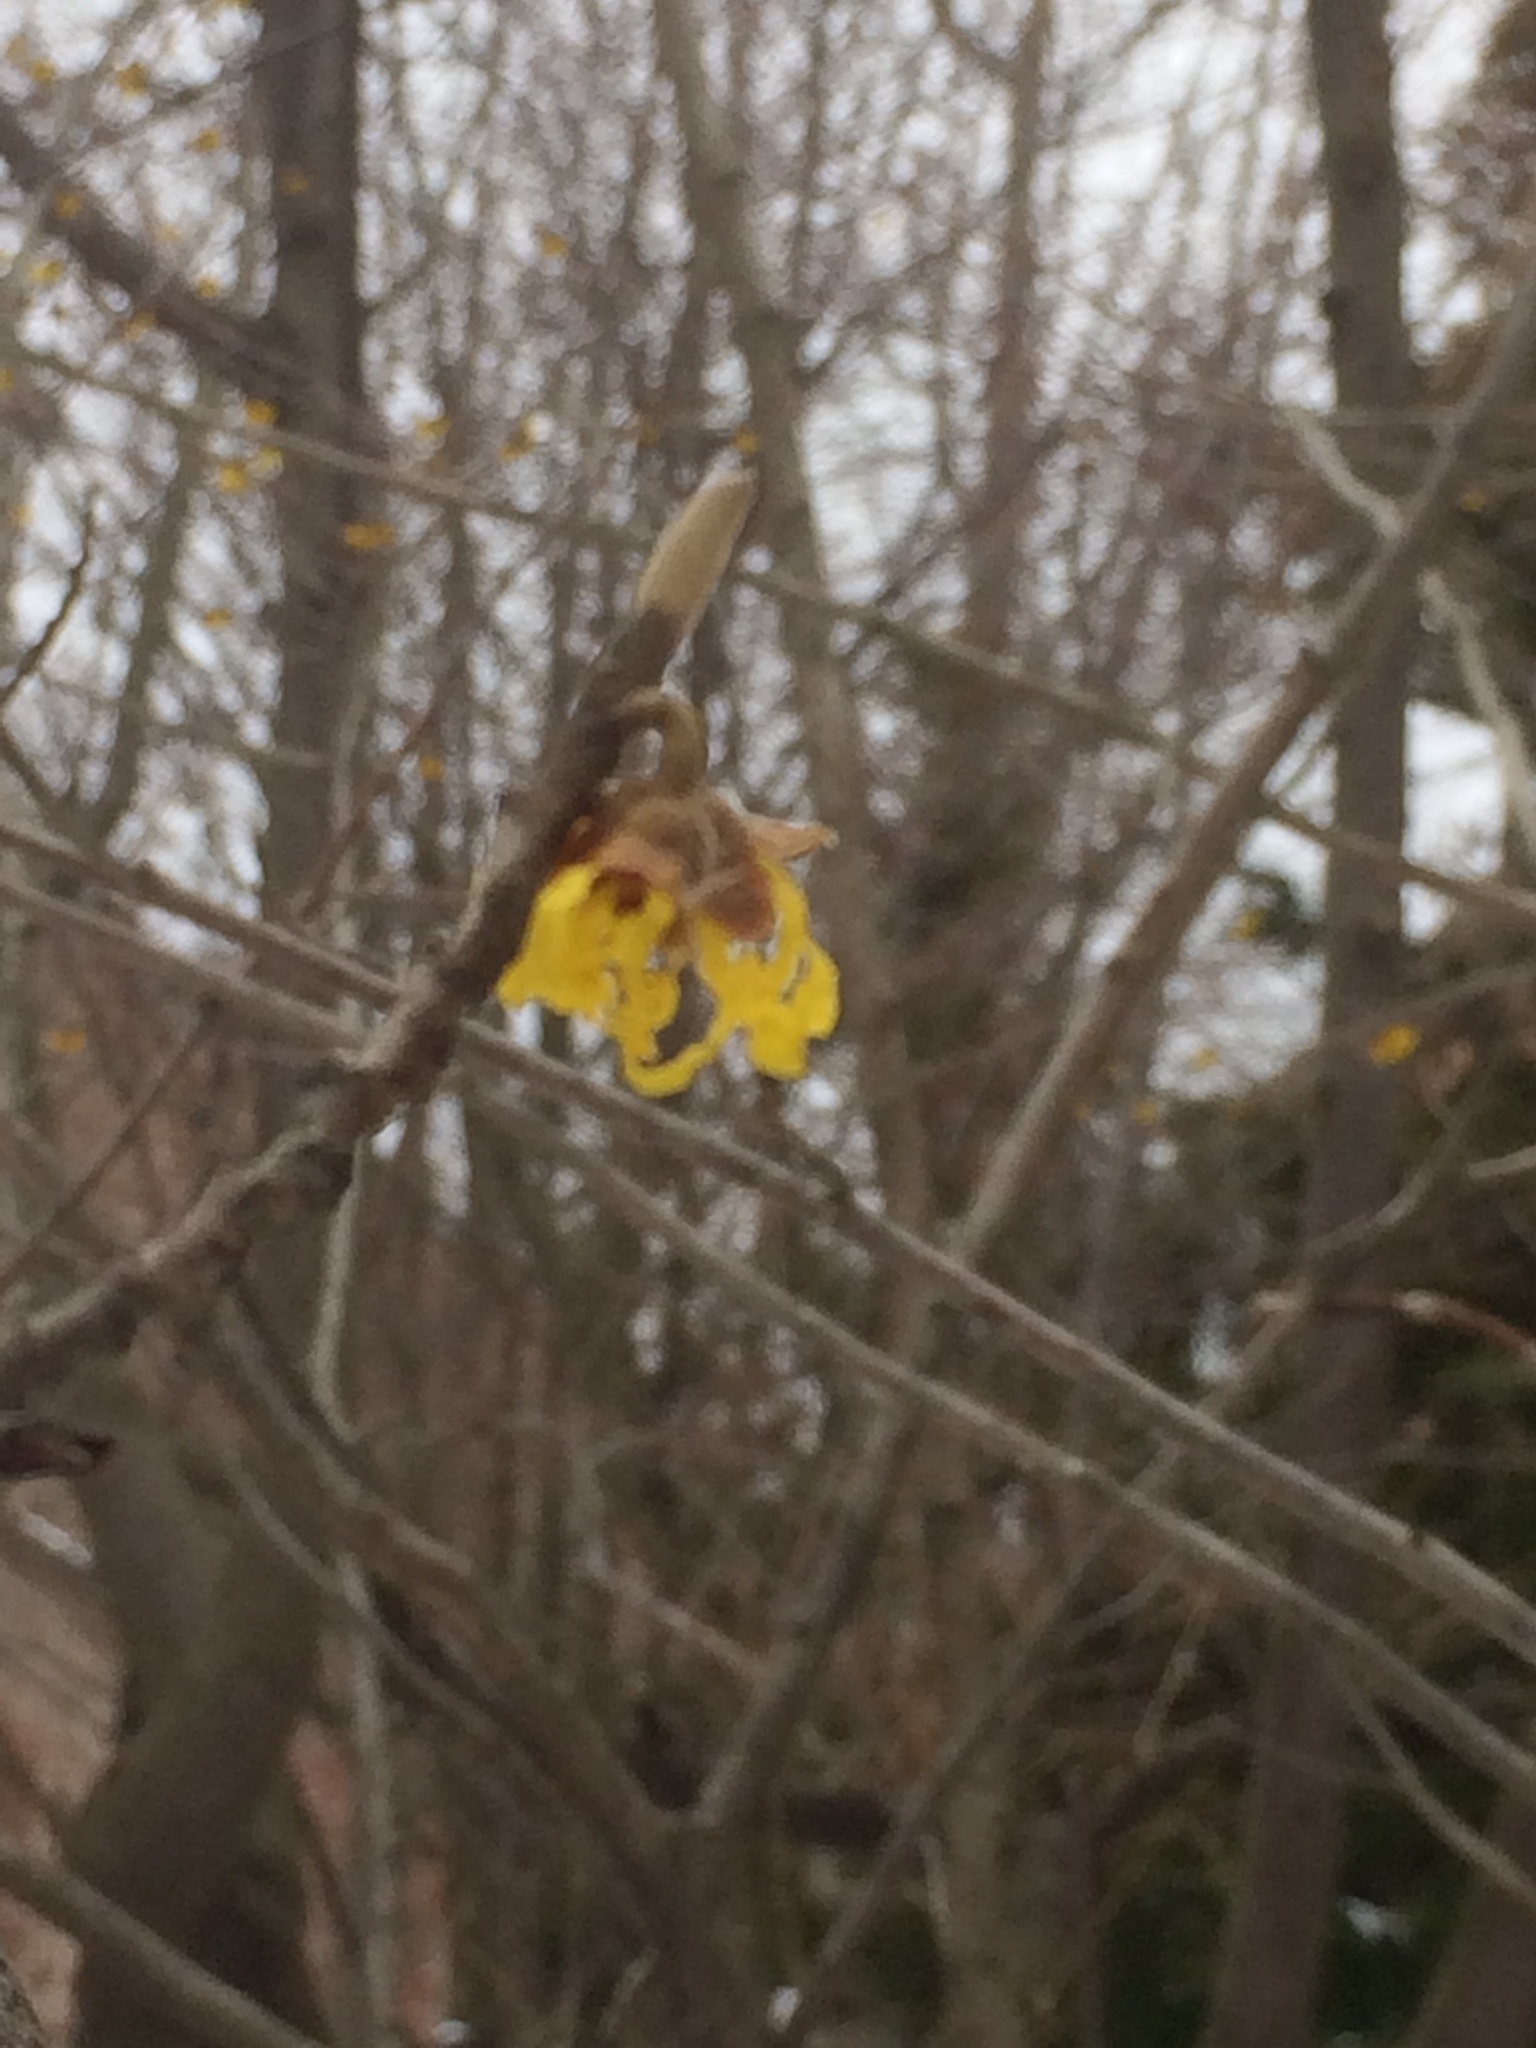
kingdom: Plantae
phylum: Tracheophyta
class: Magnoliopsida
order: Saxifragales
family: Hamamelidaceae
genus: Hamamelis
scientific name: Hamamelis virginiana
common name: Witch-hazel
